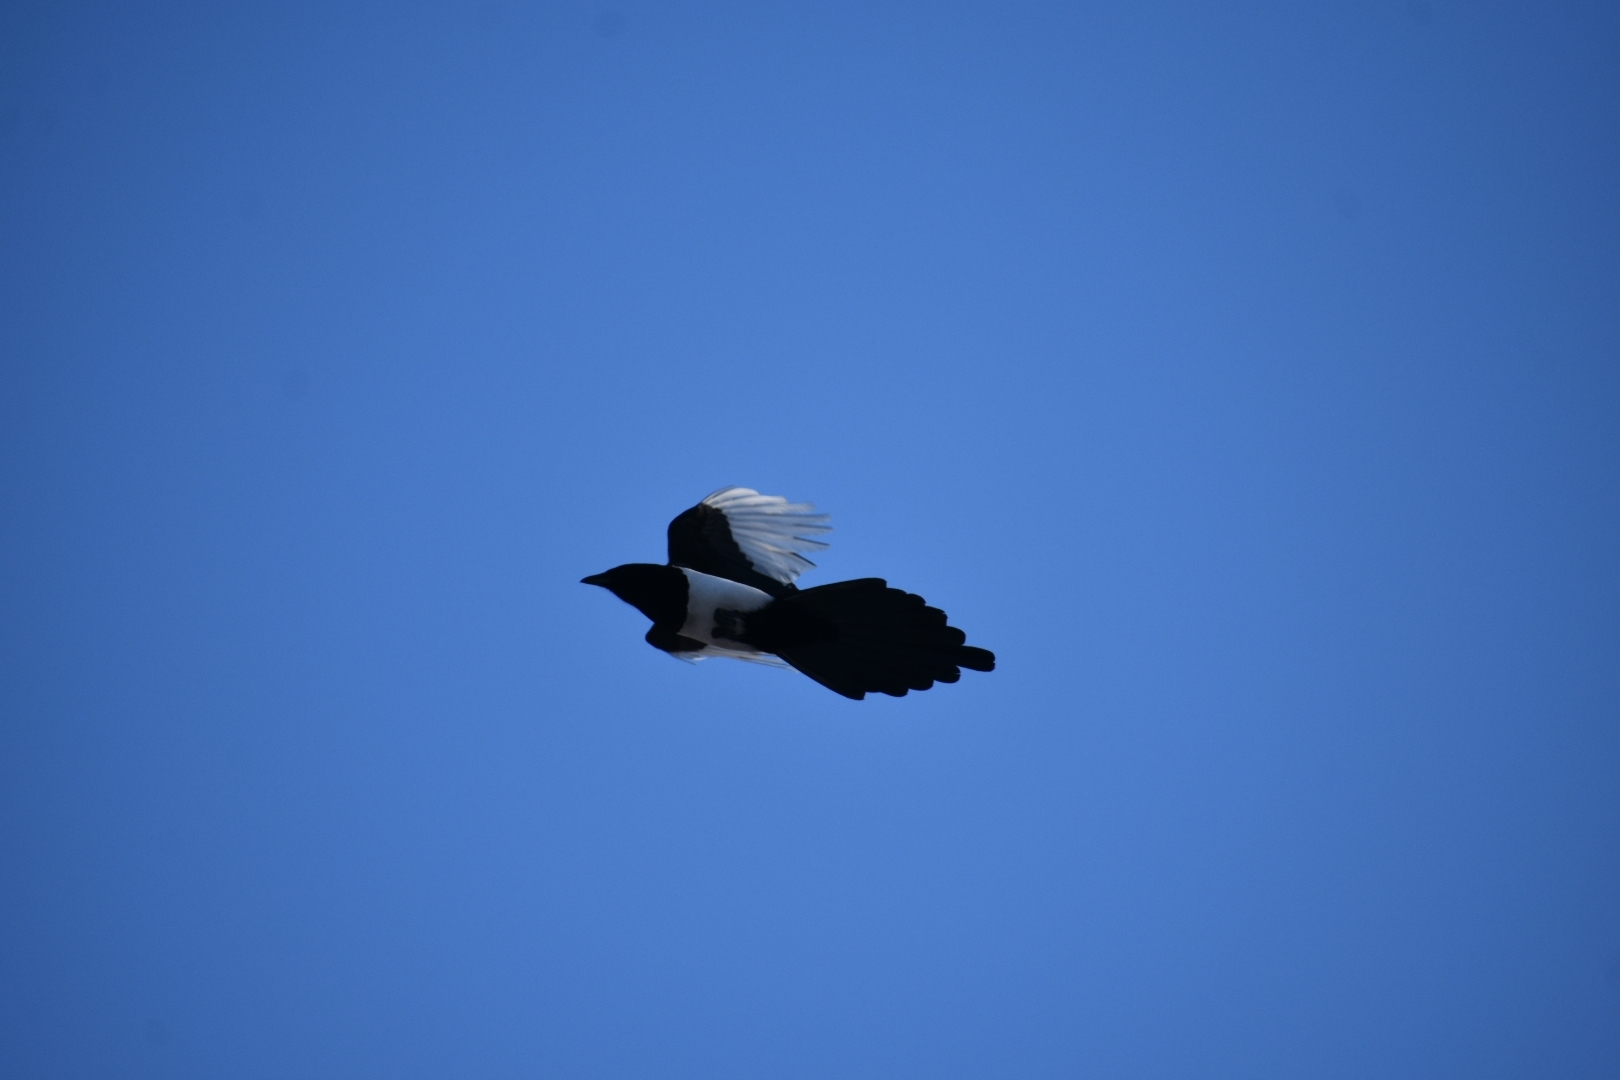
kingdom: Animalia
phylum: Chordata
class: Aves
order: Passeriformes
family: Corvidae
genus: Pica
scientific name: Pica pica
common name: Eurasian magpie
